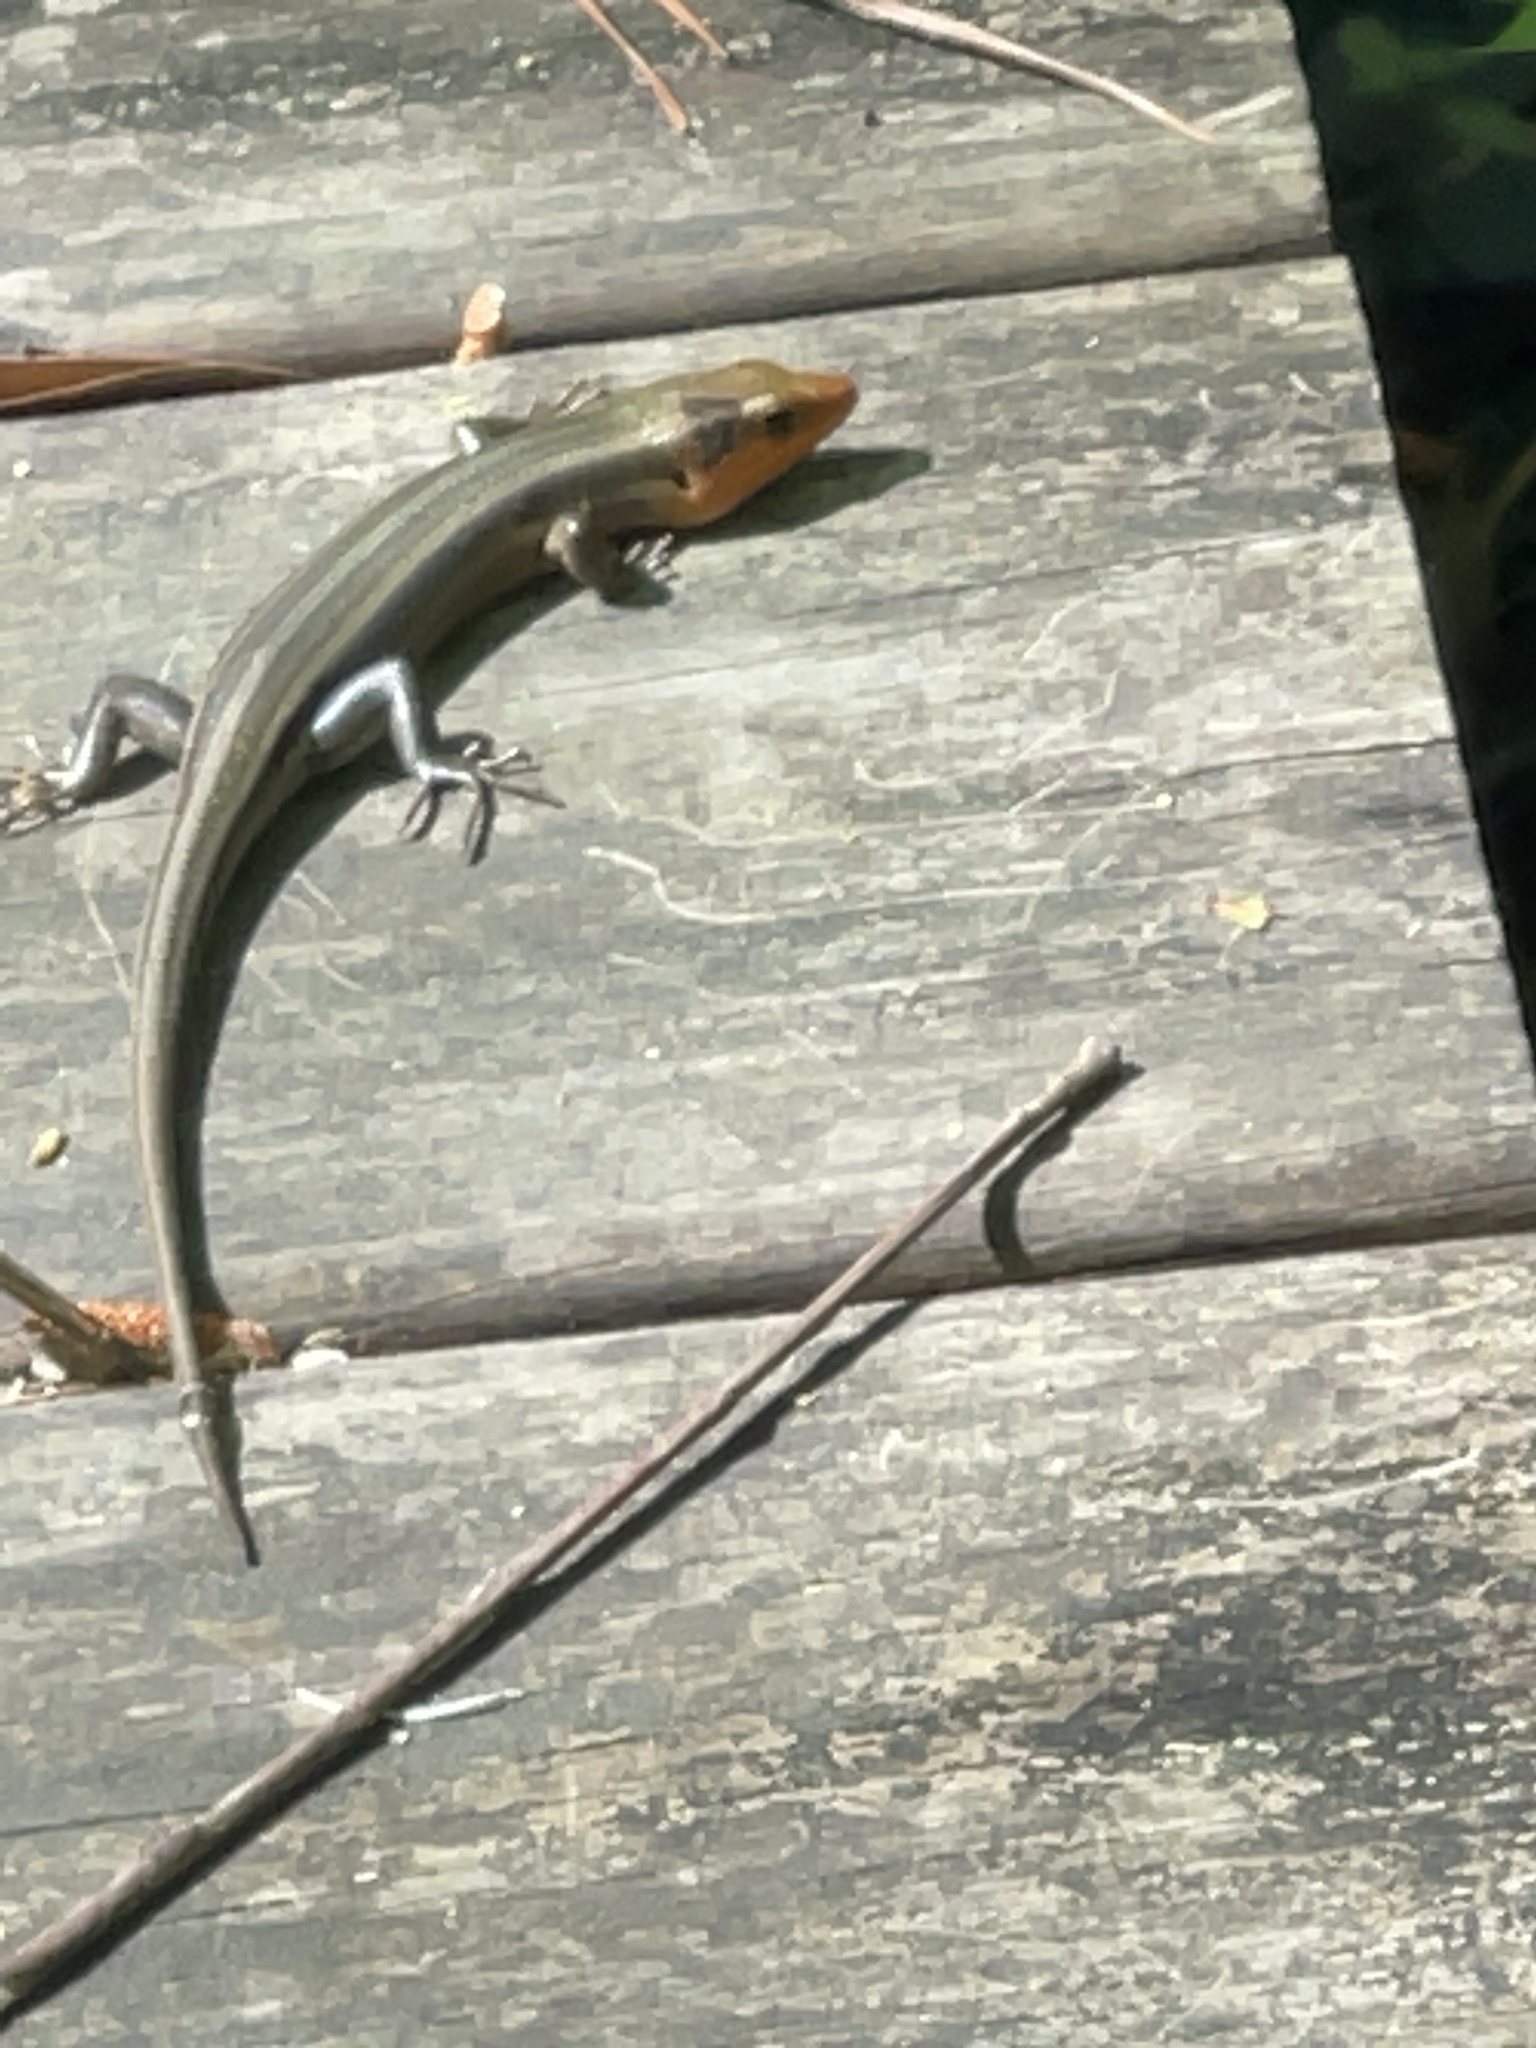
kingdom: Animalia
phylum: Chordata
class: Squamata
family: Scincidae
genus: Plestiodon
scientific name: Plestiodon fasciatus
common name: Five-lined skink
